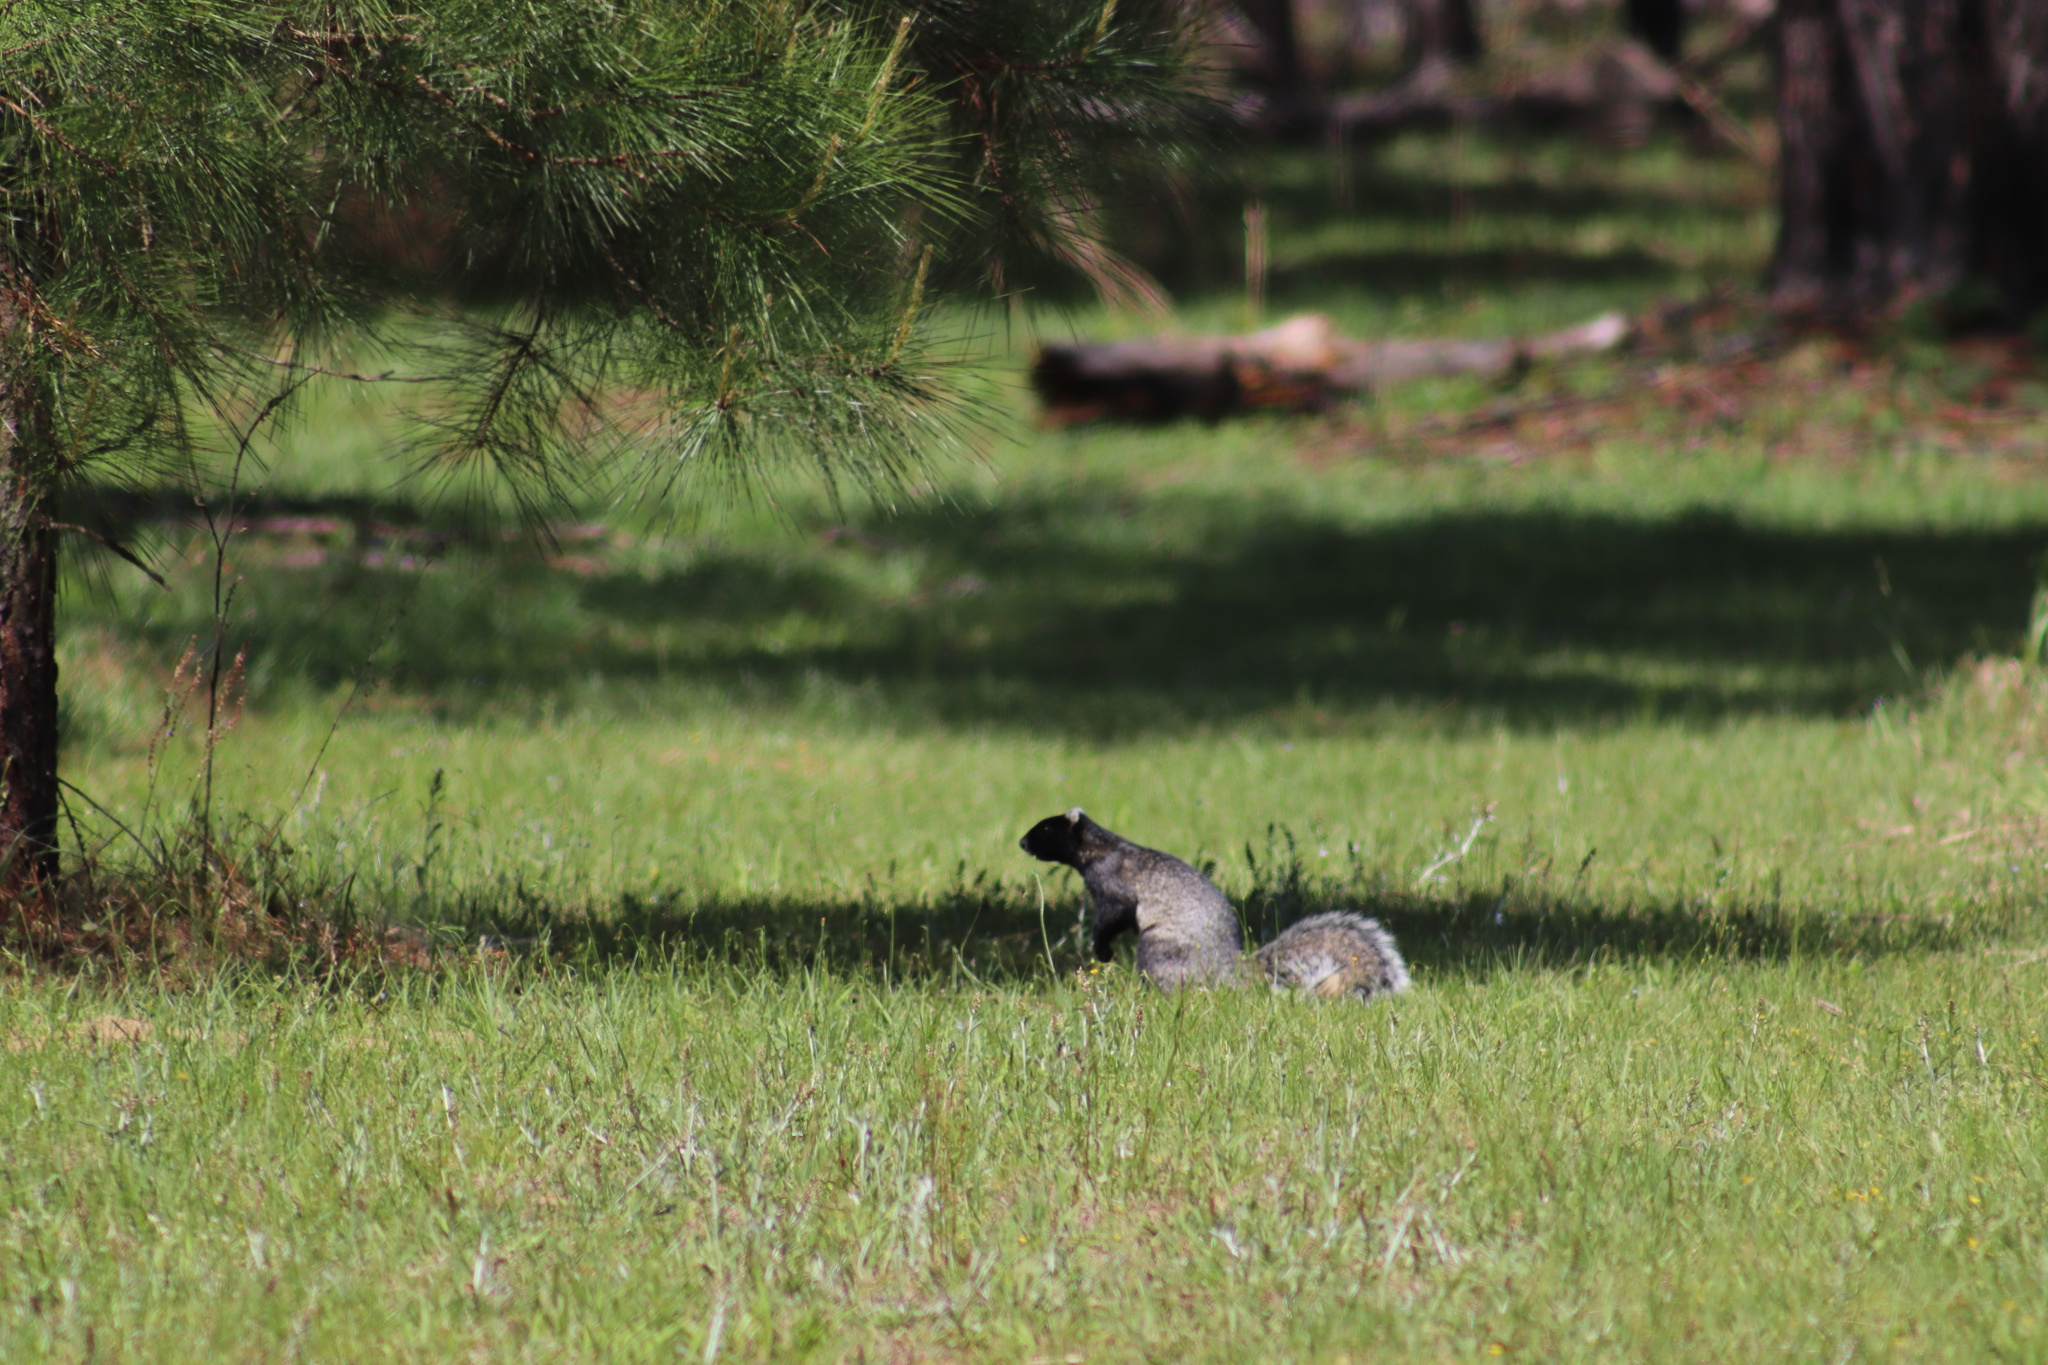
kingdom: Animalia
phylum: Chordata
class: Mammalia
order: Rodentia
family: Sciuridae
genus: Sciurus
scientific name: Sciurus niger
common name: Fox squirrel
